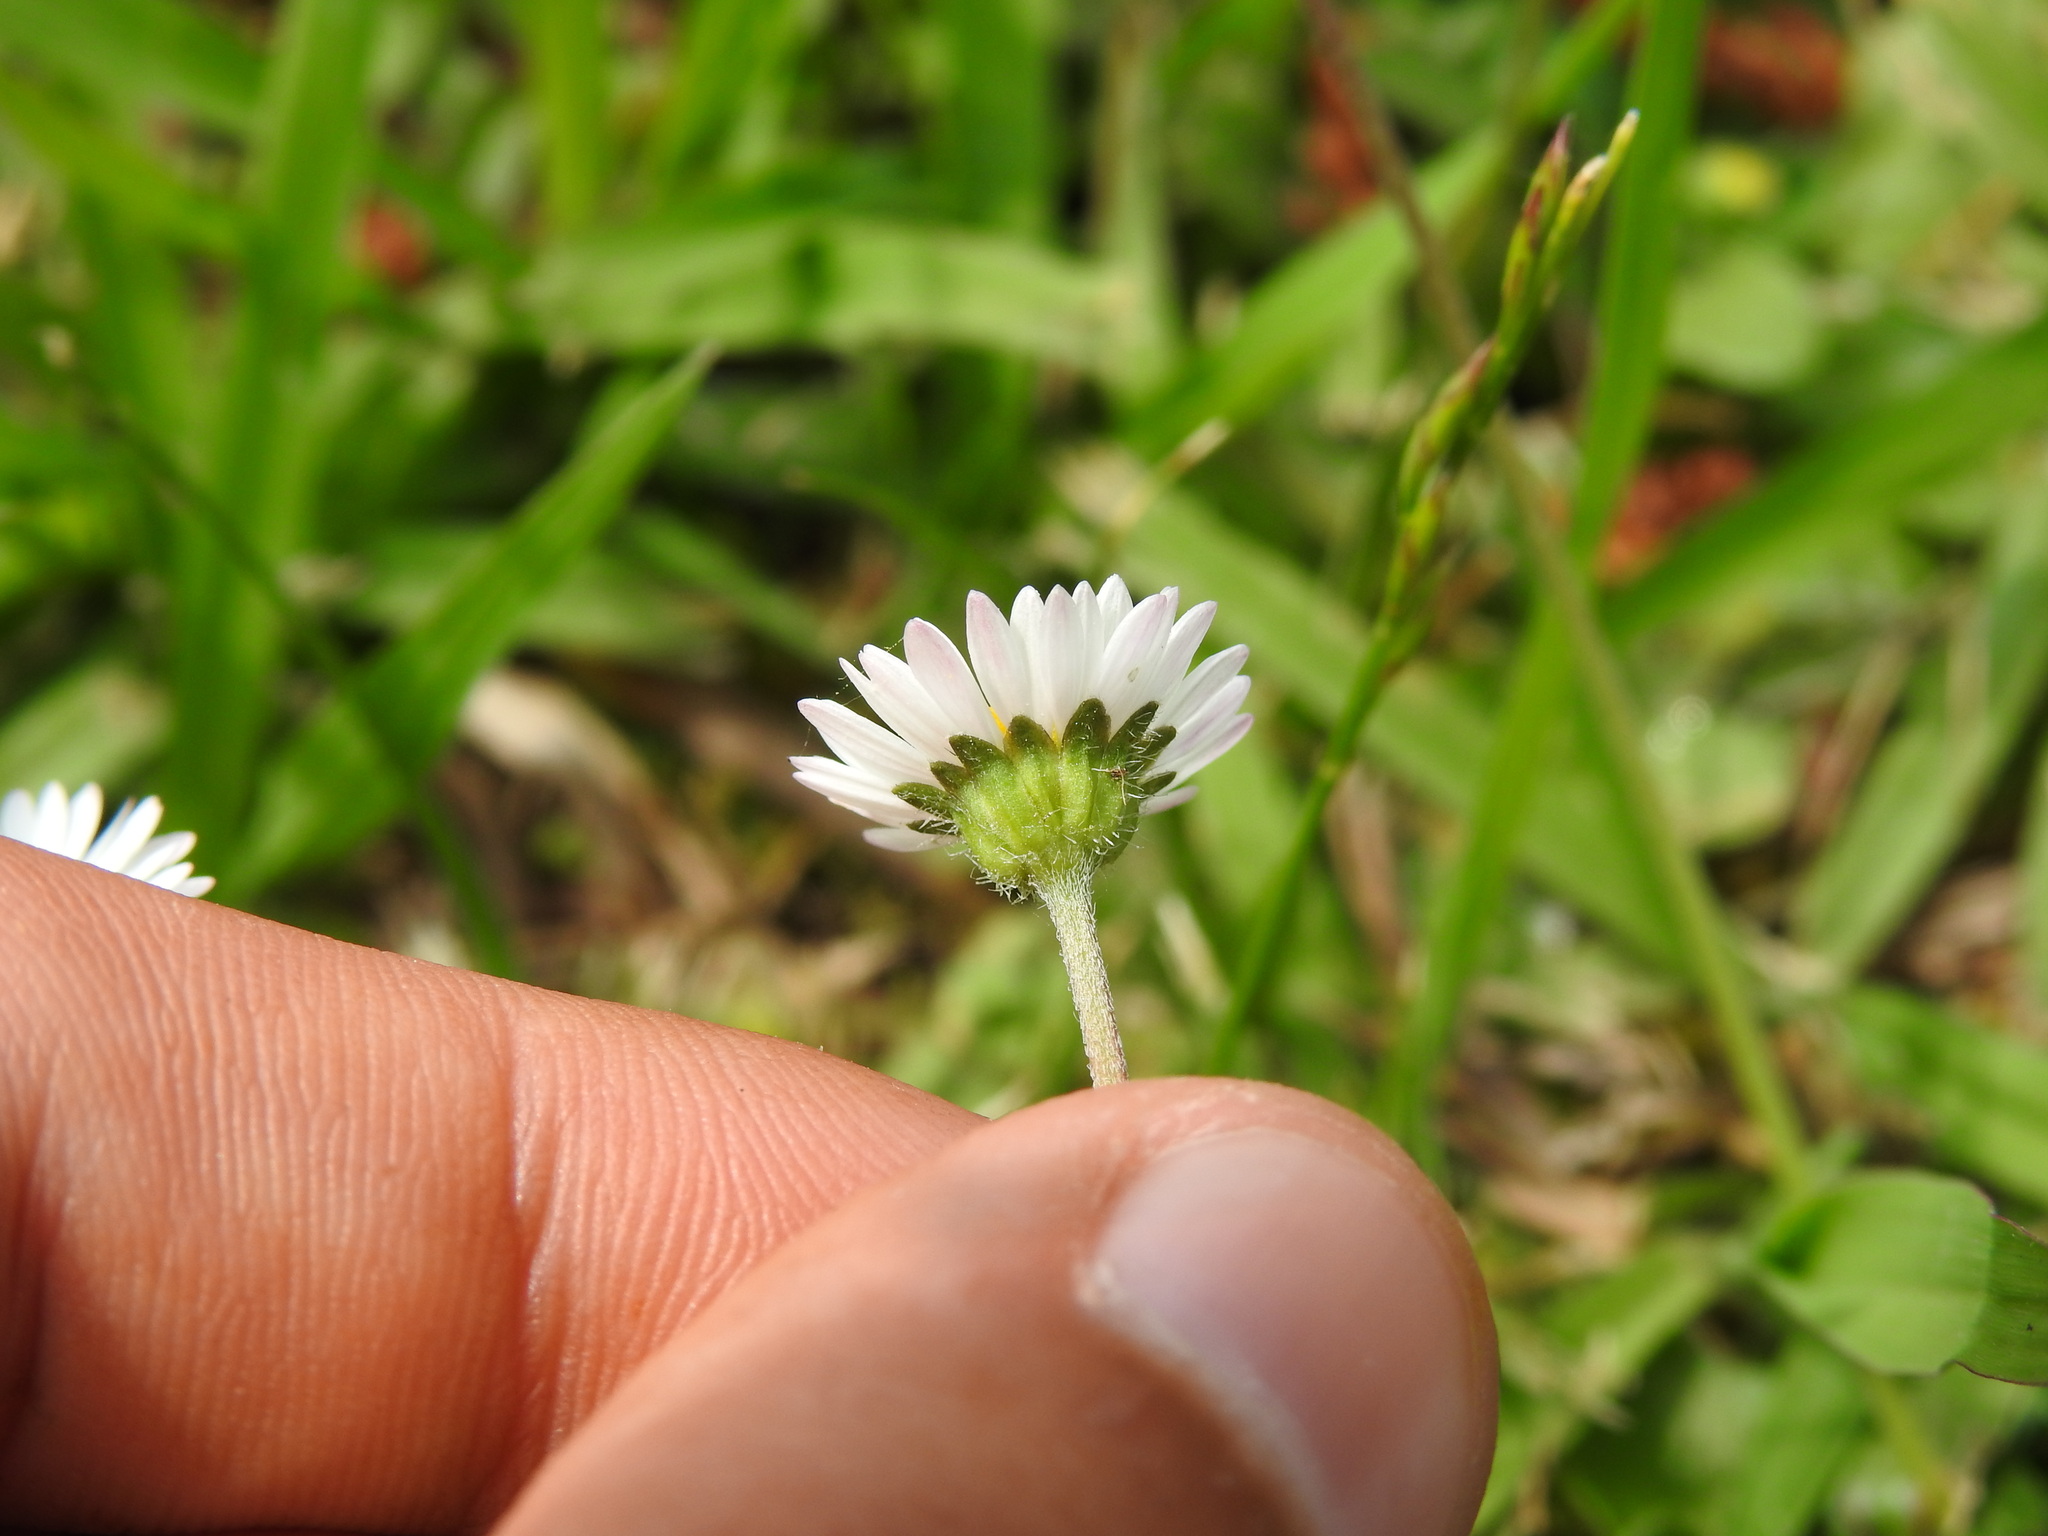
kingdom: Plantae
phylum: Tracheophyta
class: Magnoliopsida
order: Asterales
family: Asteraceae
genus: Bellis
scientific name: Bellis perennis
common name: Lawndaisy
